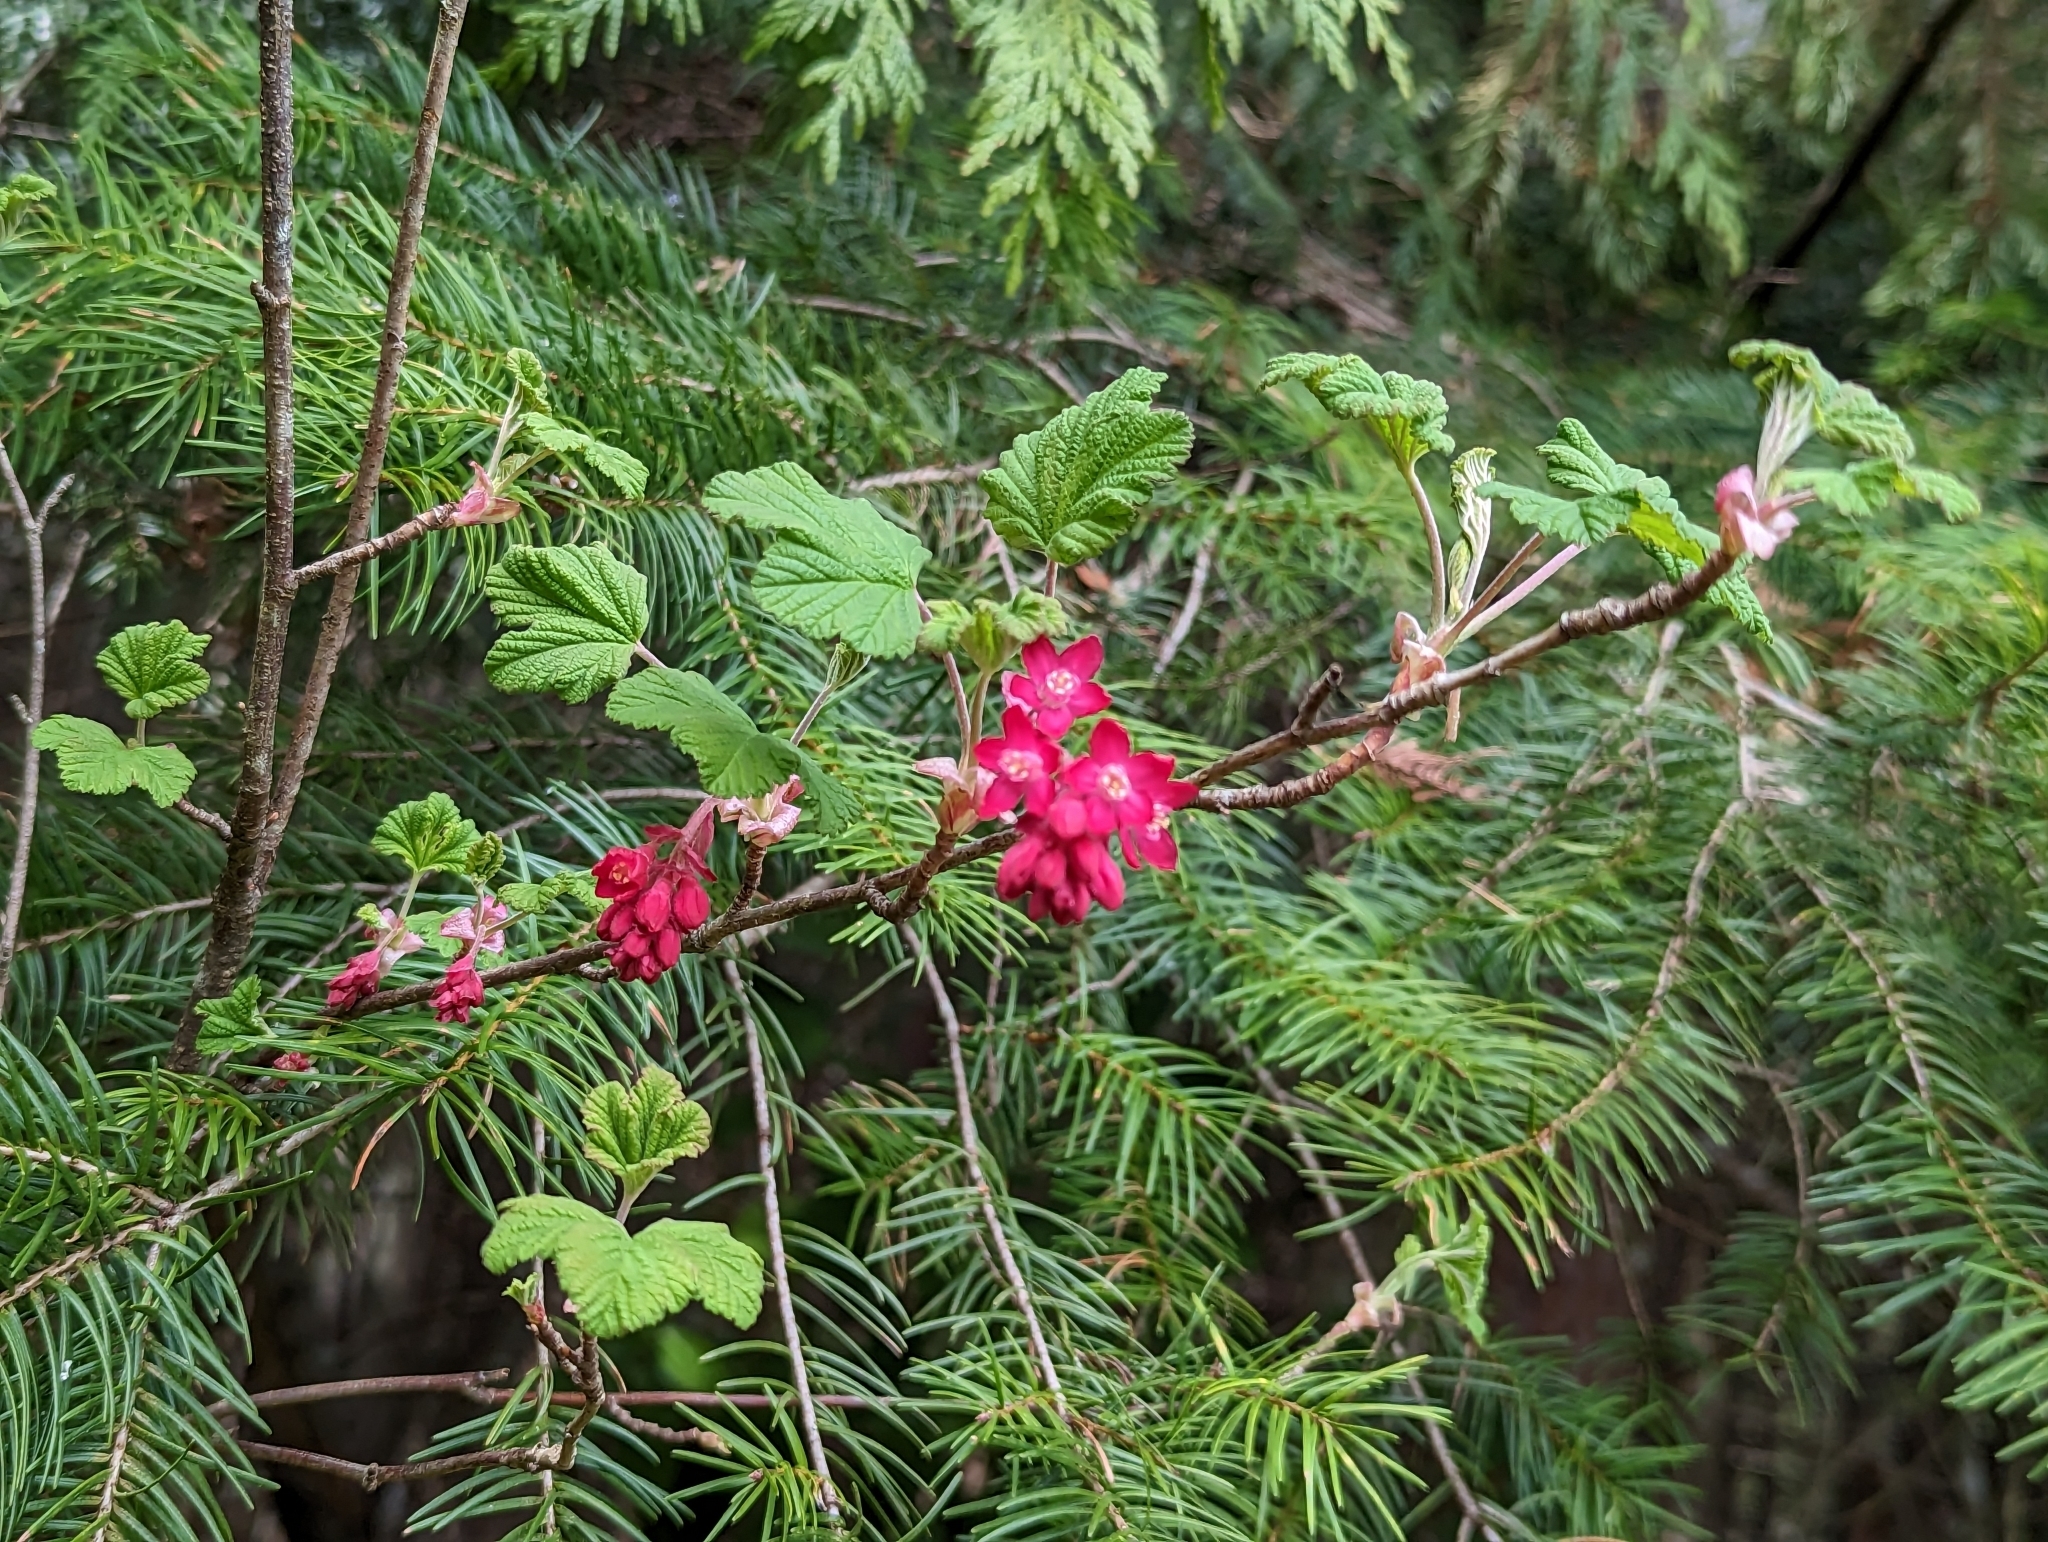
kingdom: Plantae
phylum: Tracheophyta
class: Magnoliopsida
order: Saxifragales
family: Grossulariaceae
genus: Ribes
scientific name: Ribes sanguineum
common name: Flowering currant
